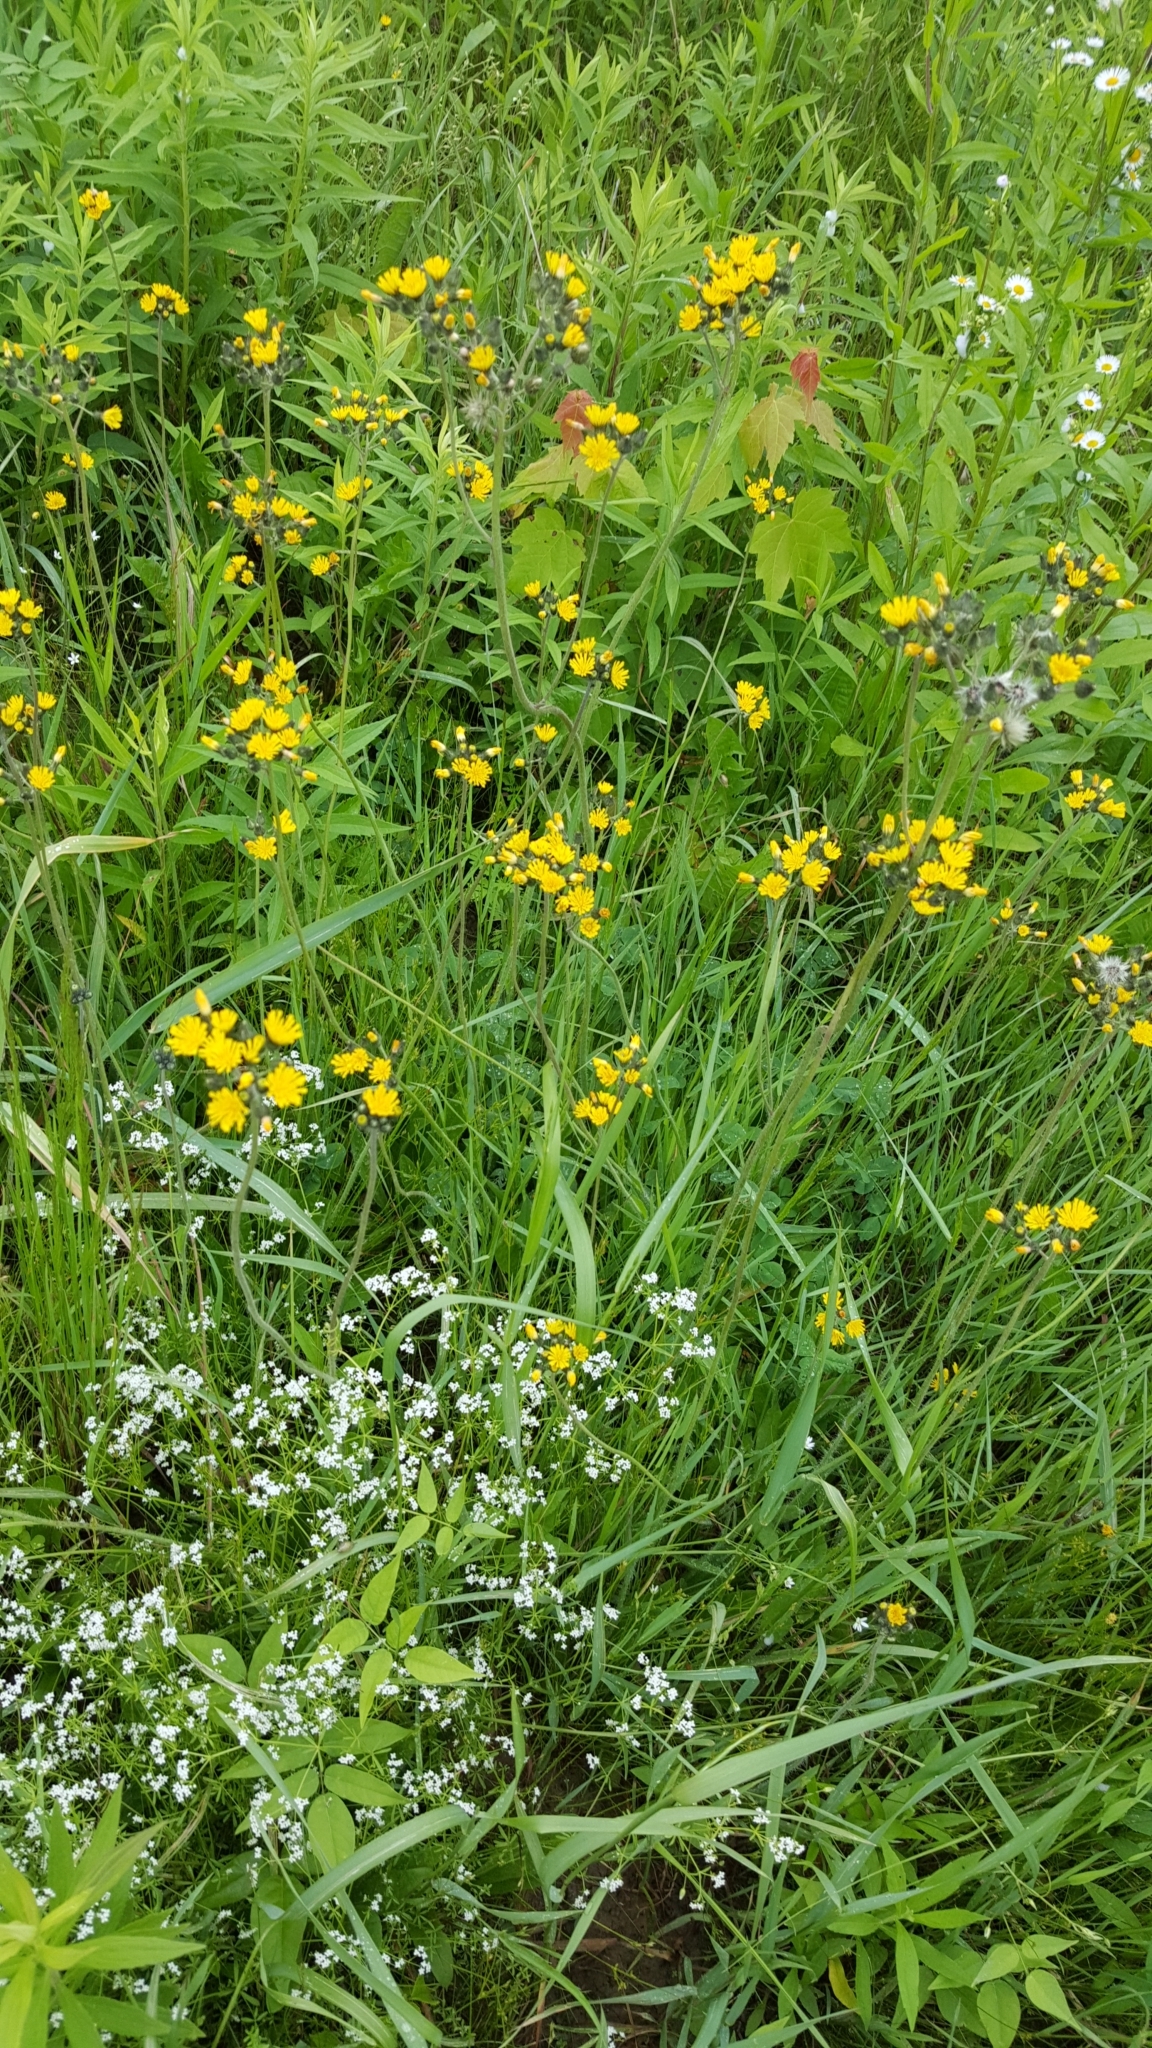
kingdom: Plantae
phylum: Tracheophyta
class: Magnoliopsida
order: Asterales
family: Asteraceae
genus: Pilosella
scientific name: Pilosella caespitosa
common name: Yellow fox-and-cubs
